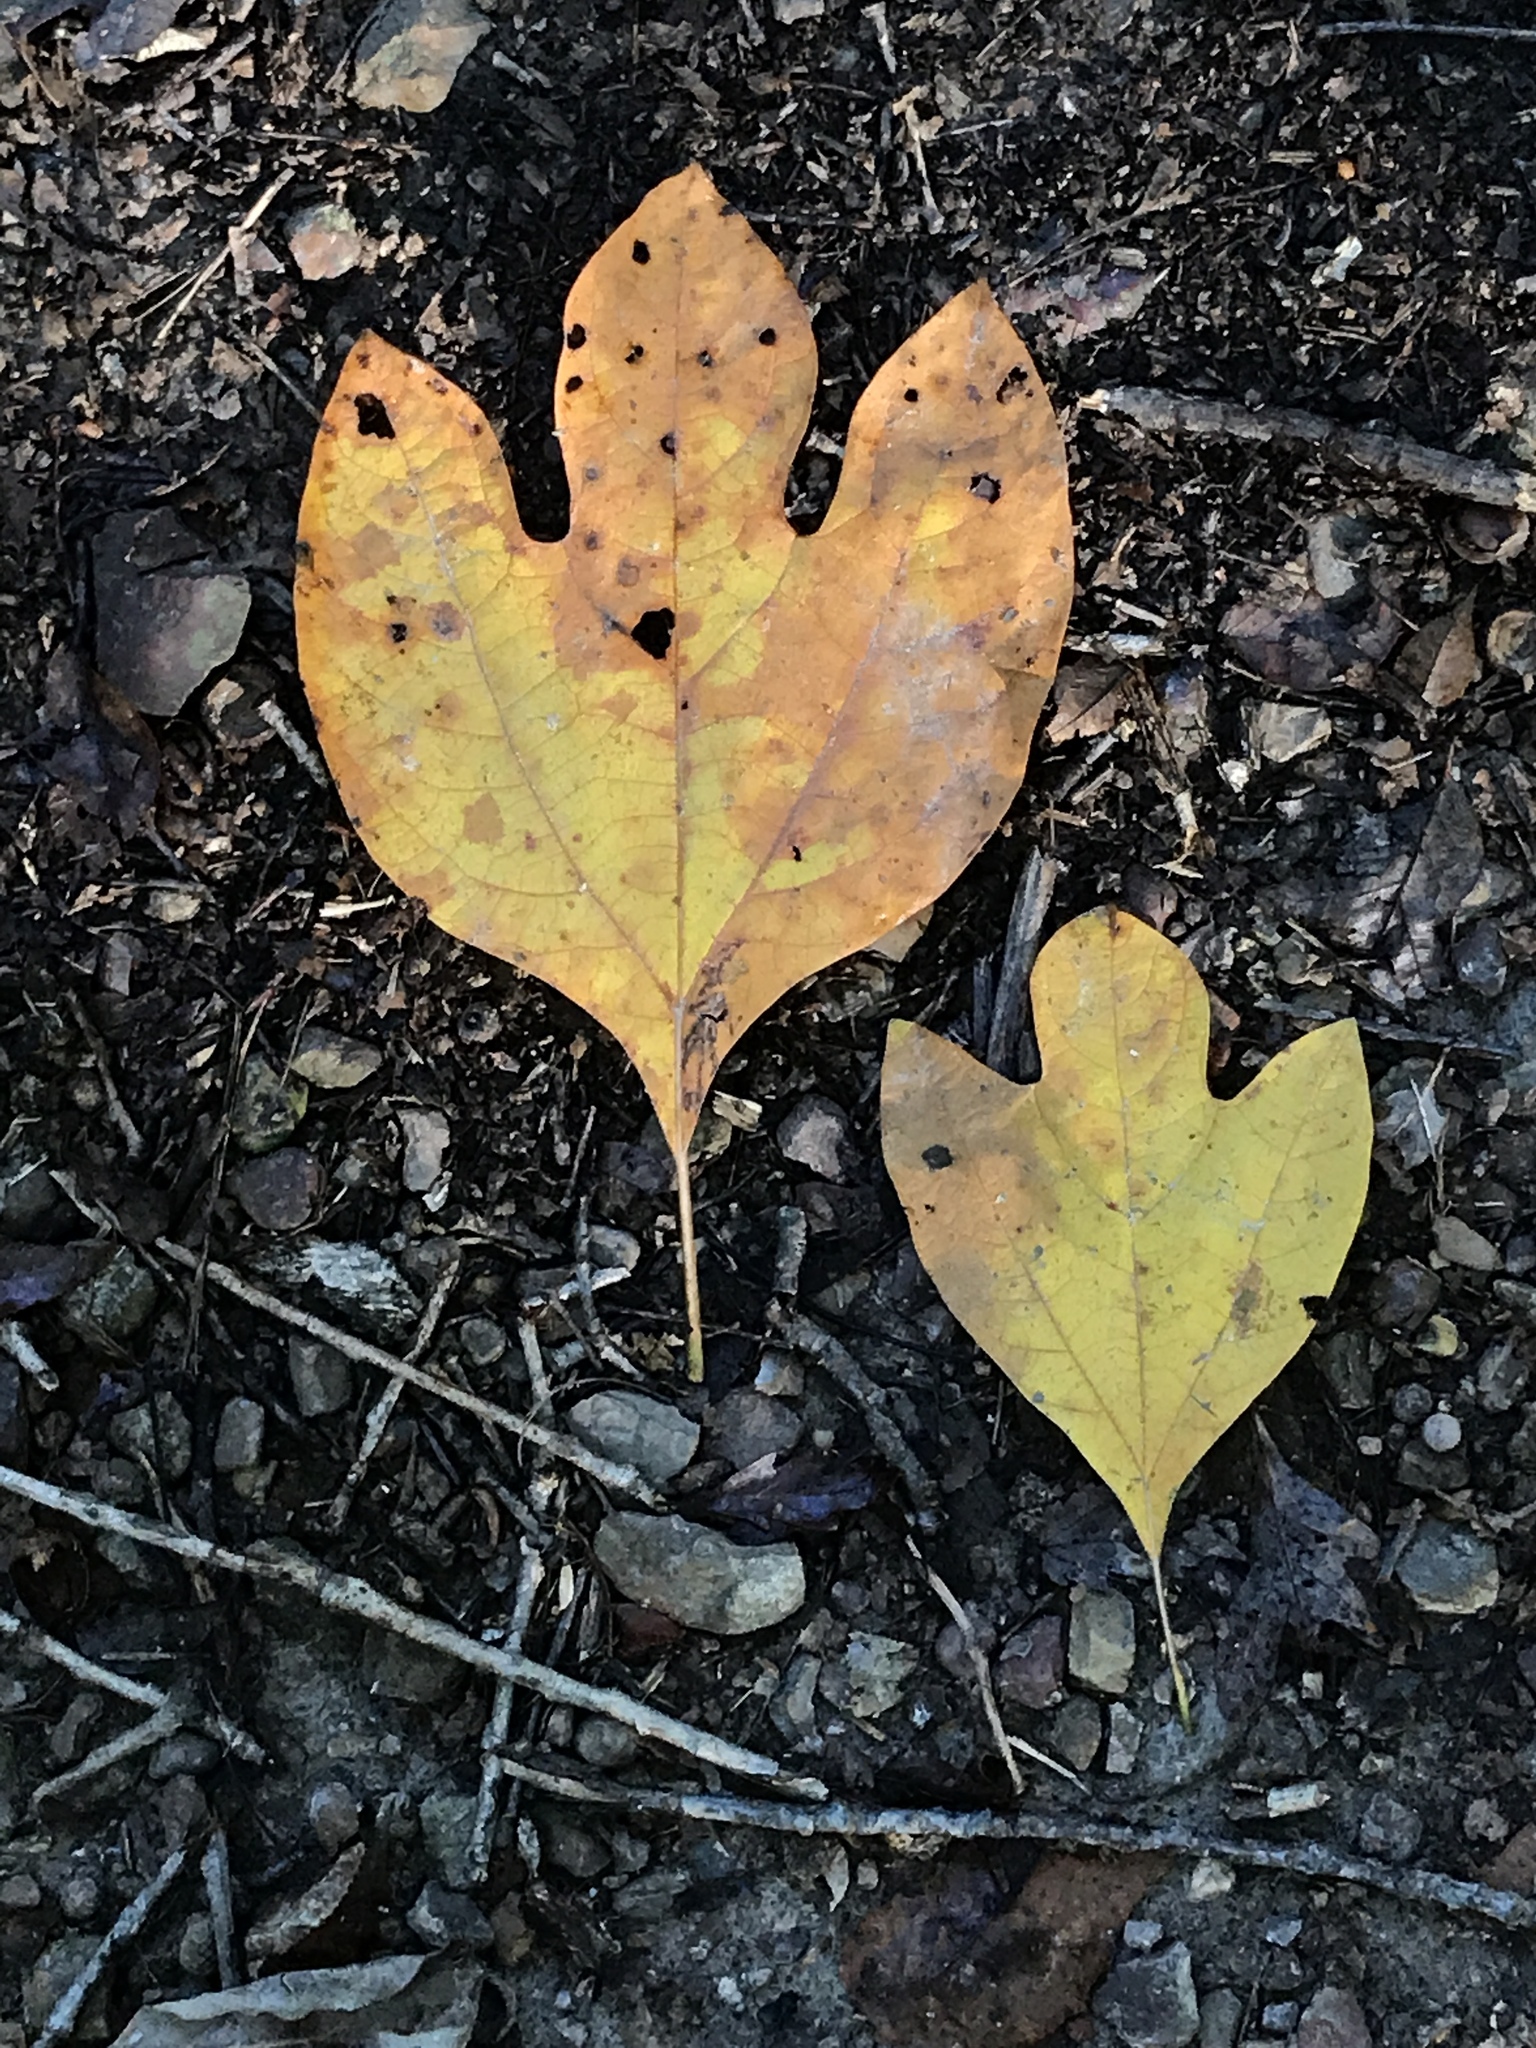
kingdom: Plantae
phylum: Tracheophyta
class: Magnoliopsida
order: Laurales
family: Lauraceae
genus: Sassafras
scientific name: Sassafras albidum
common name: Sassafras
